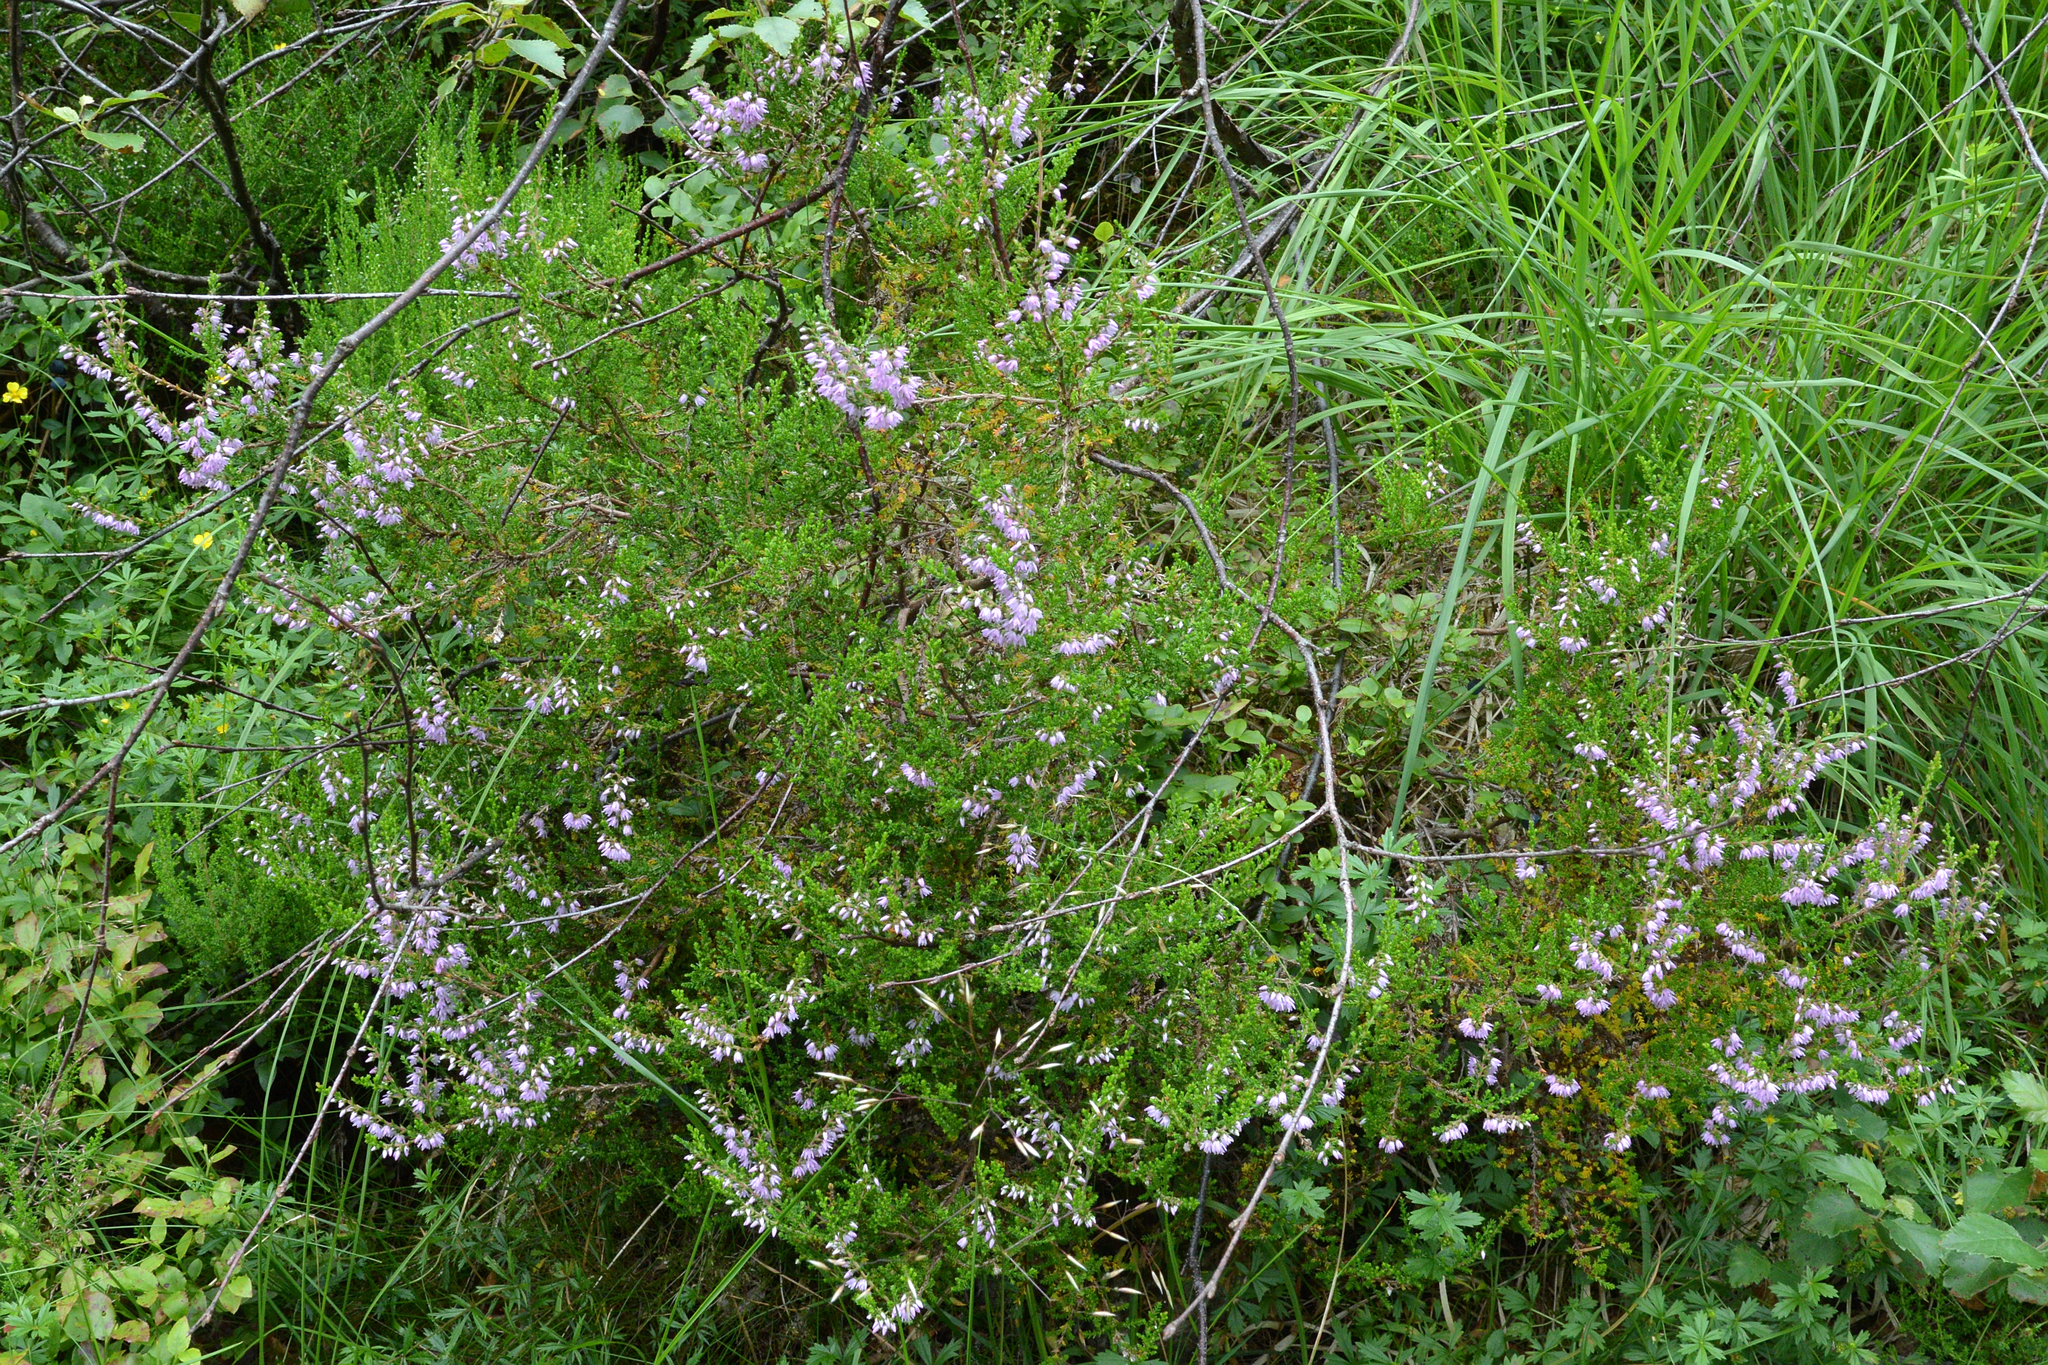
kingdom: Plantae
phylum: Tracheophyta
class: Magnoliopsida
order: Ericales
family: Ericaceae
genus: Calluna
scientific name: Calluna vulgaris
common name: Heather
